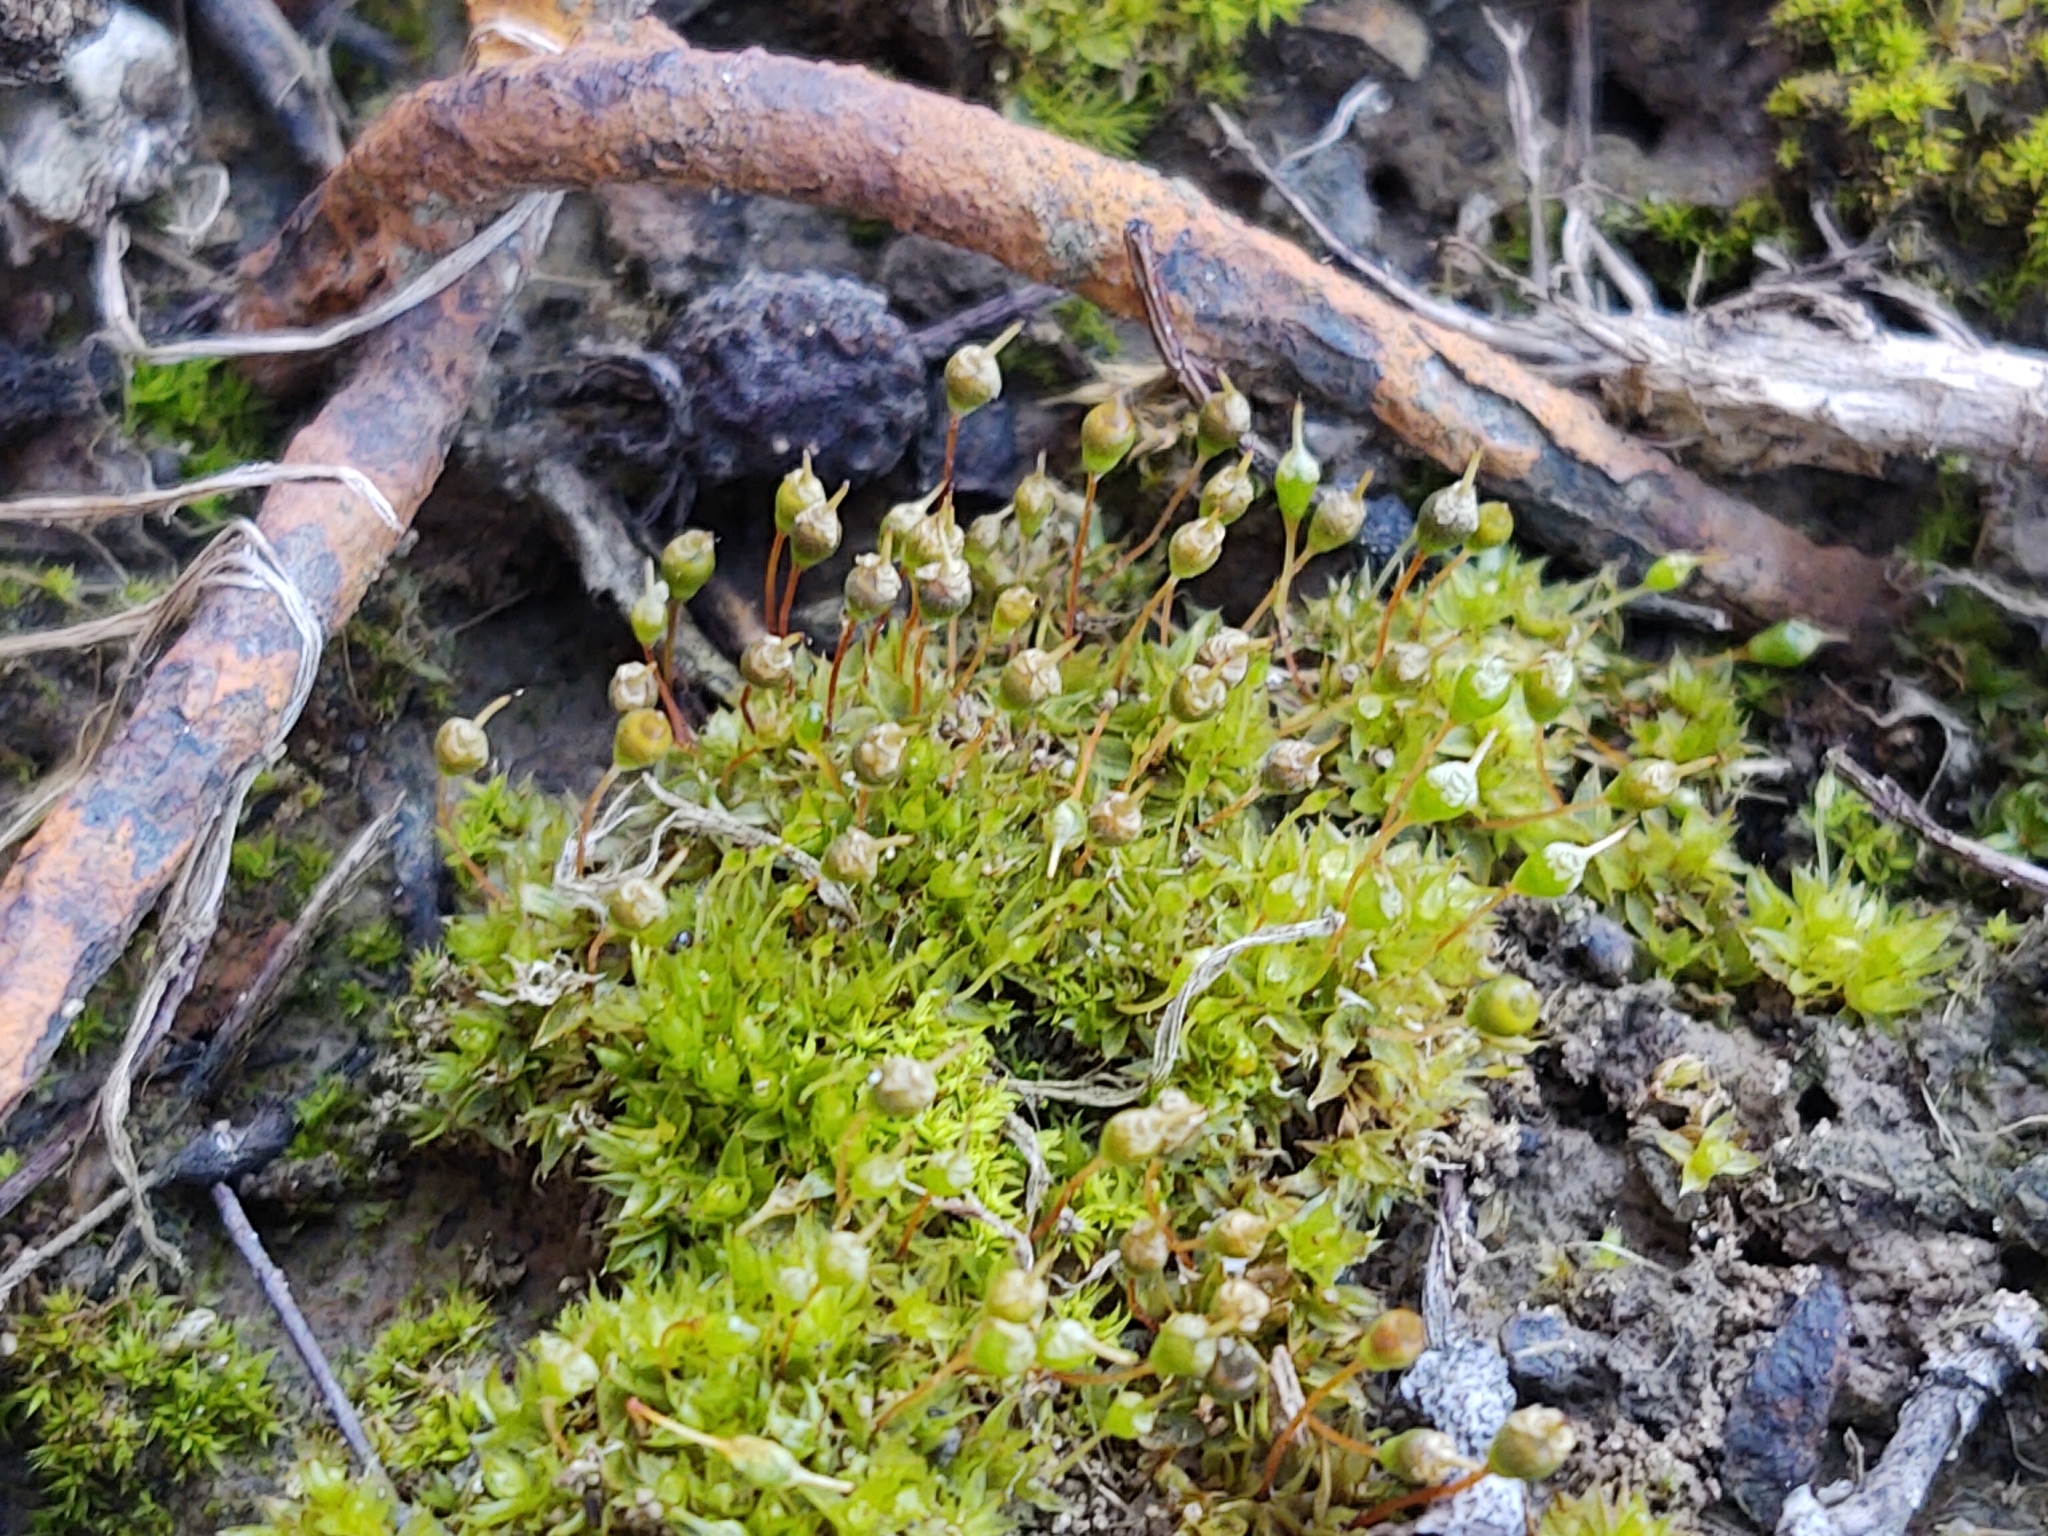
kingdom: Plantae
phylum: Bryophyta
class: Bryopsida
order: Funariales
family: Funariaceae
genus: Physcomitrium
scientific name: Physcomitrium pyriforme
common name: Common bladder-moss
